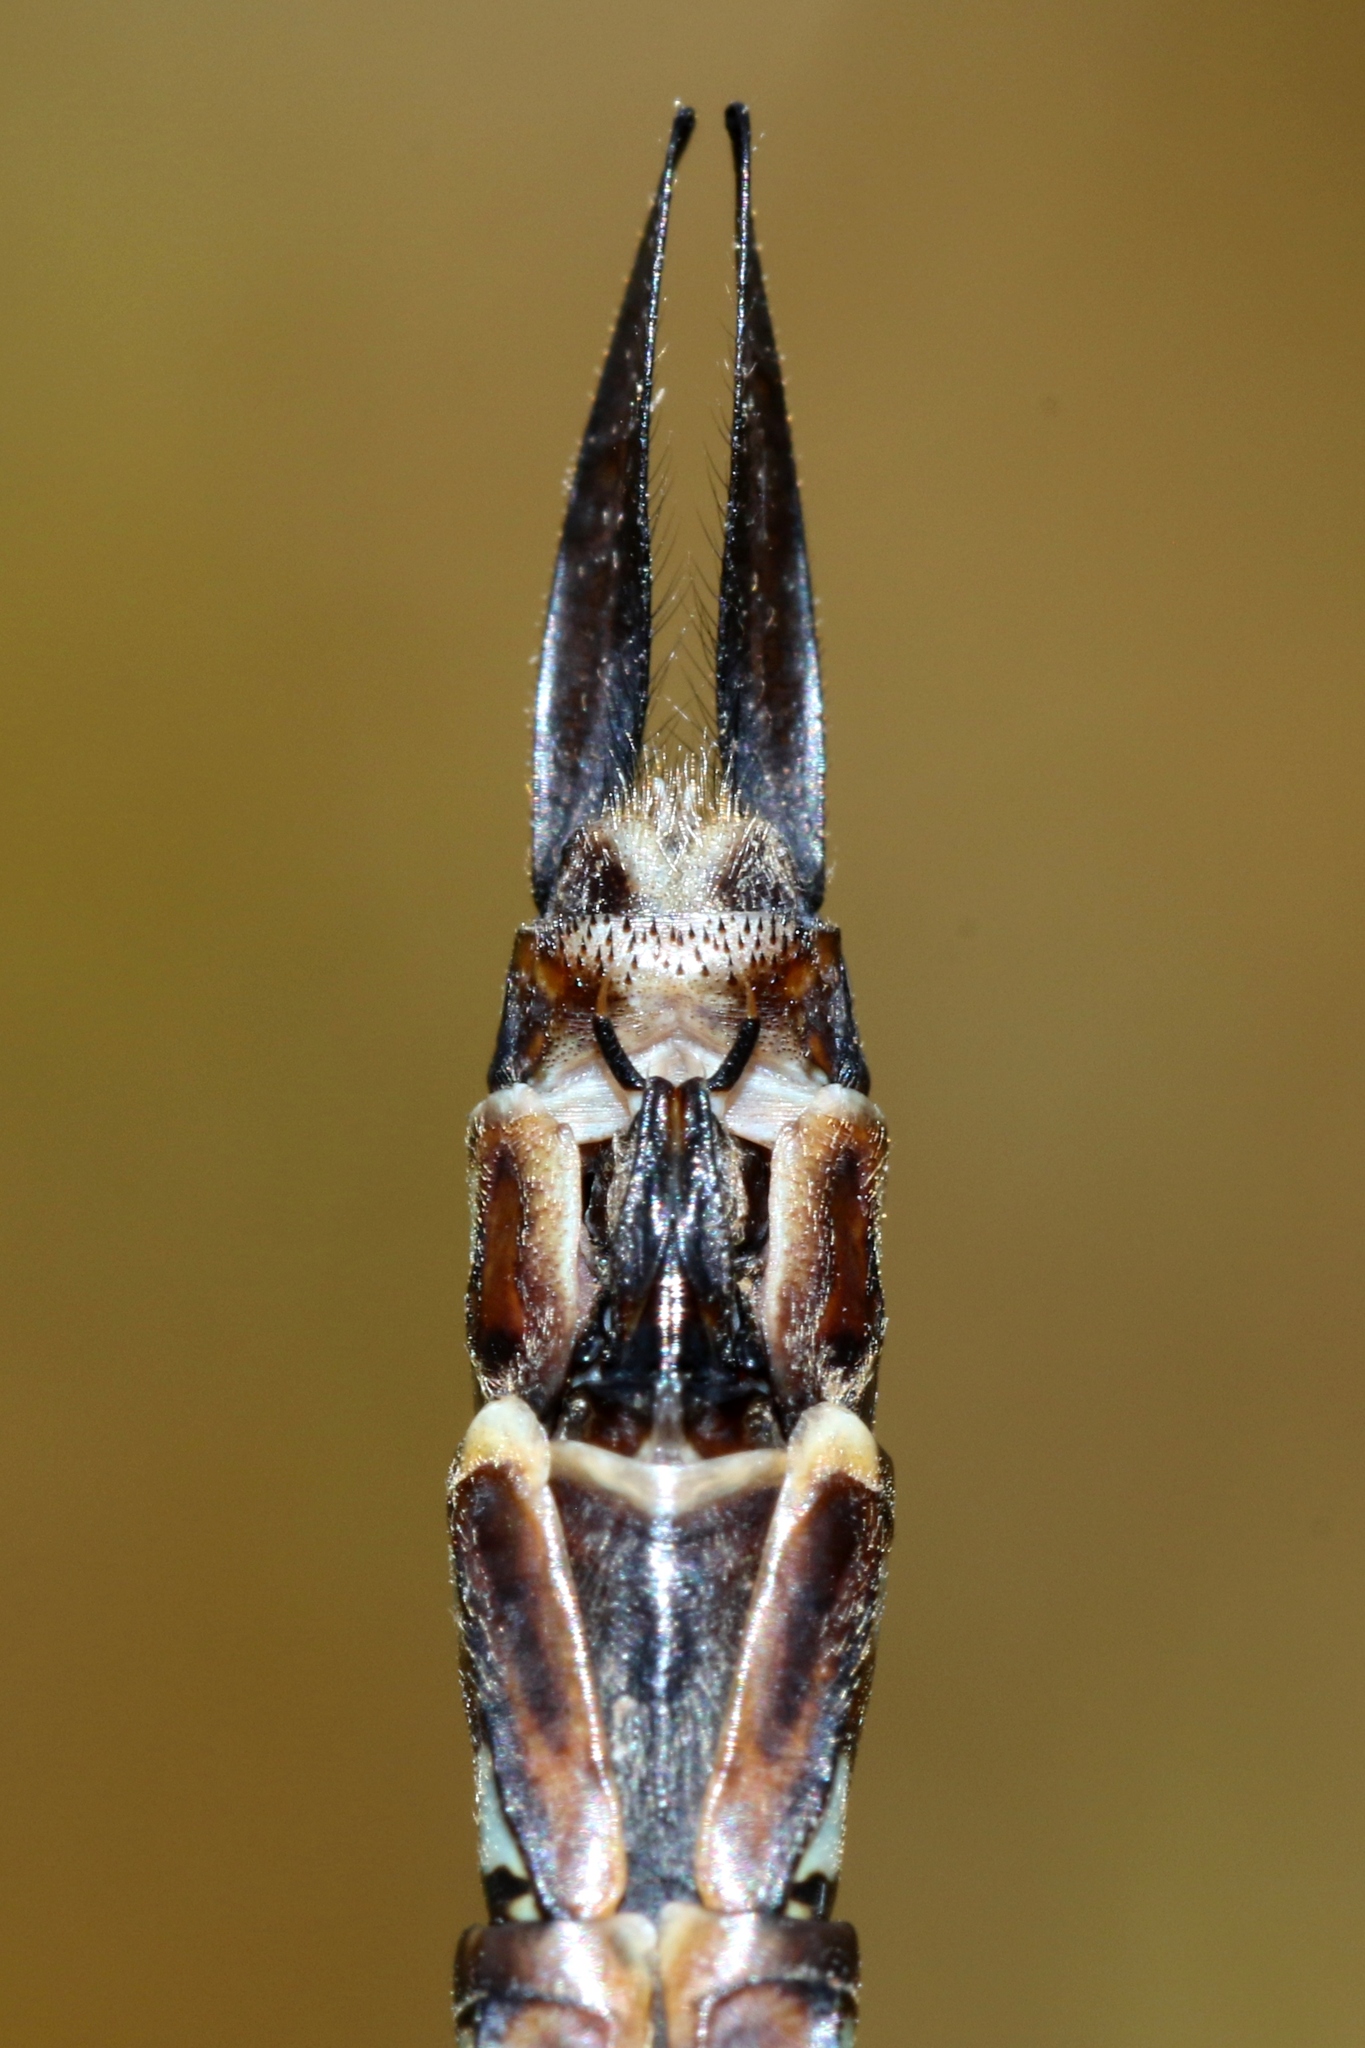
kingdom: Animalia
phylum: Arthropoda
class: Insecta
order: Odonata
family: Aeshnidae
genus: Aeshna
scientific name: Aeshna eremita
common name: Lake darner
